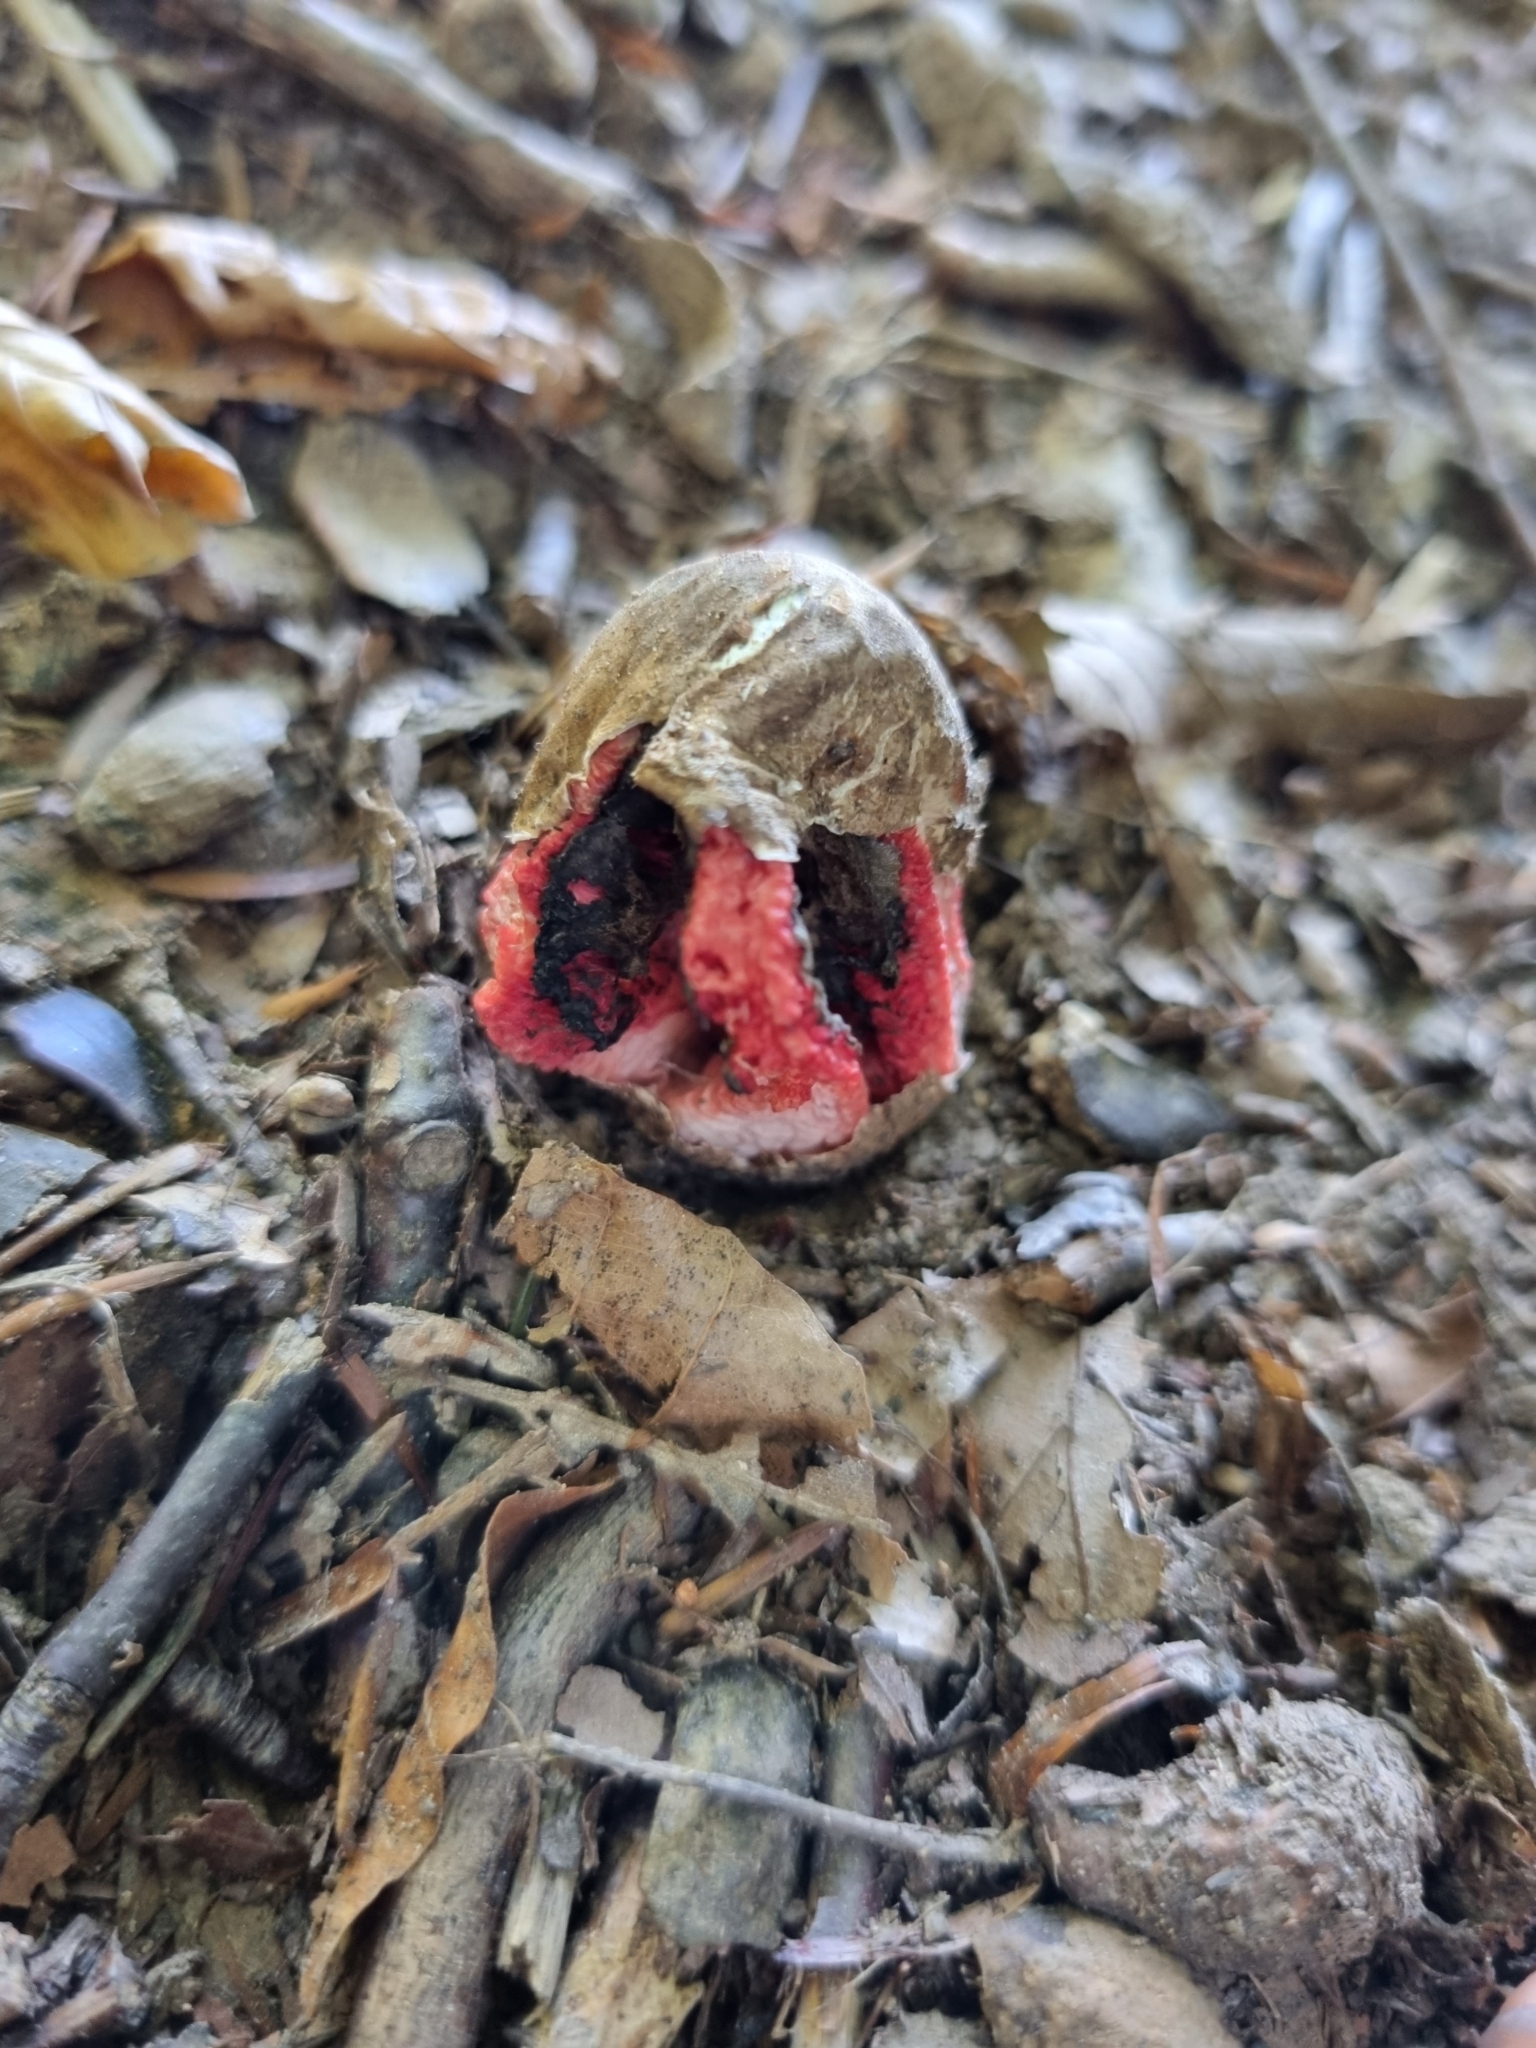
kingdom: Fungi
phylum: Basidiomycota
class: Agaricomycetes
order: Phallales
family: Phallaceae
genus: Clathrus
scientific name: Clathrus archeri
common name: Devil's fingers
